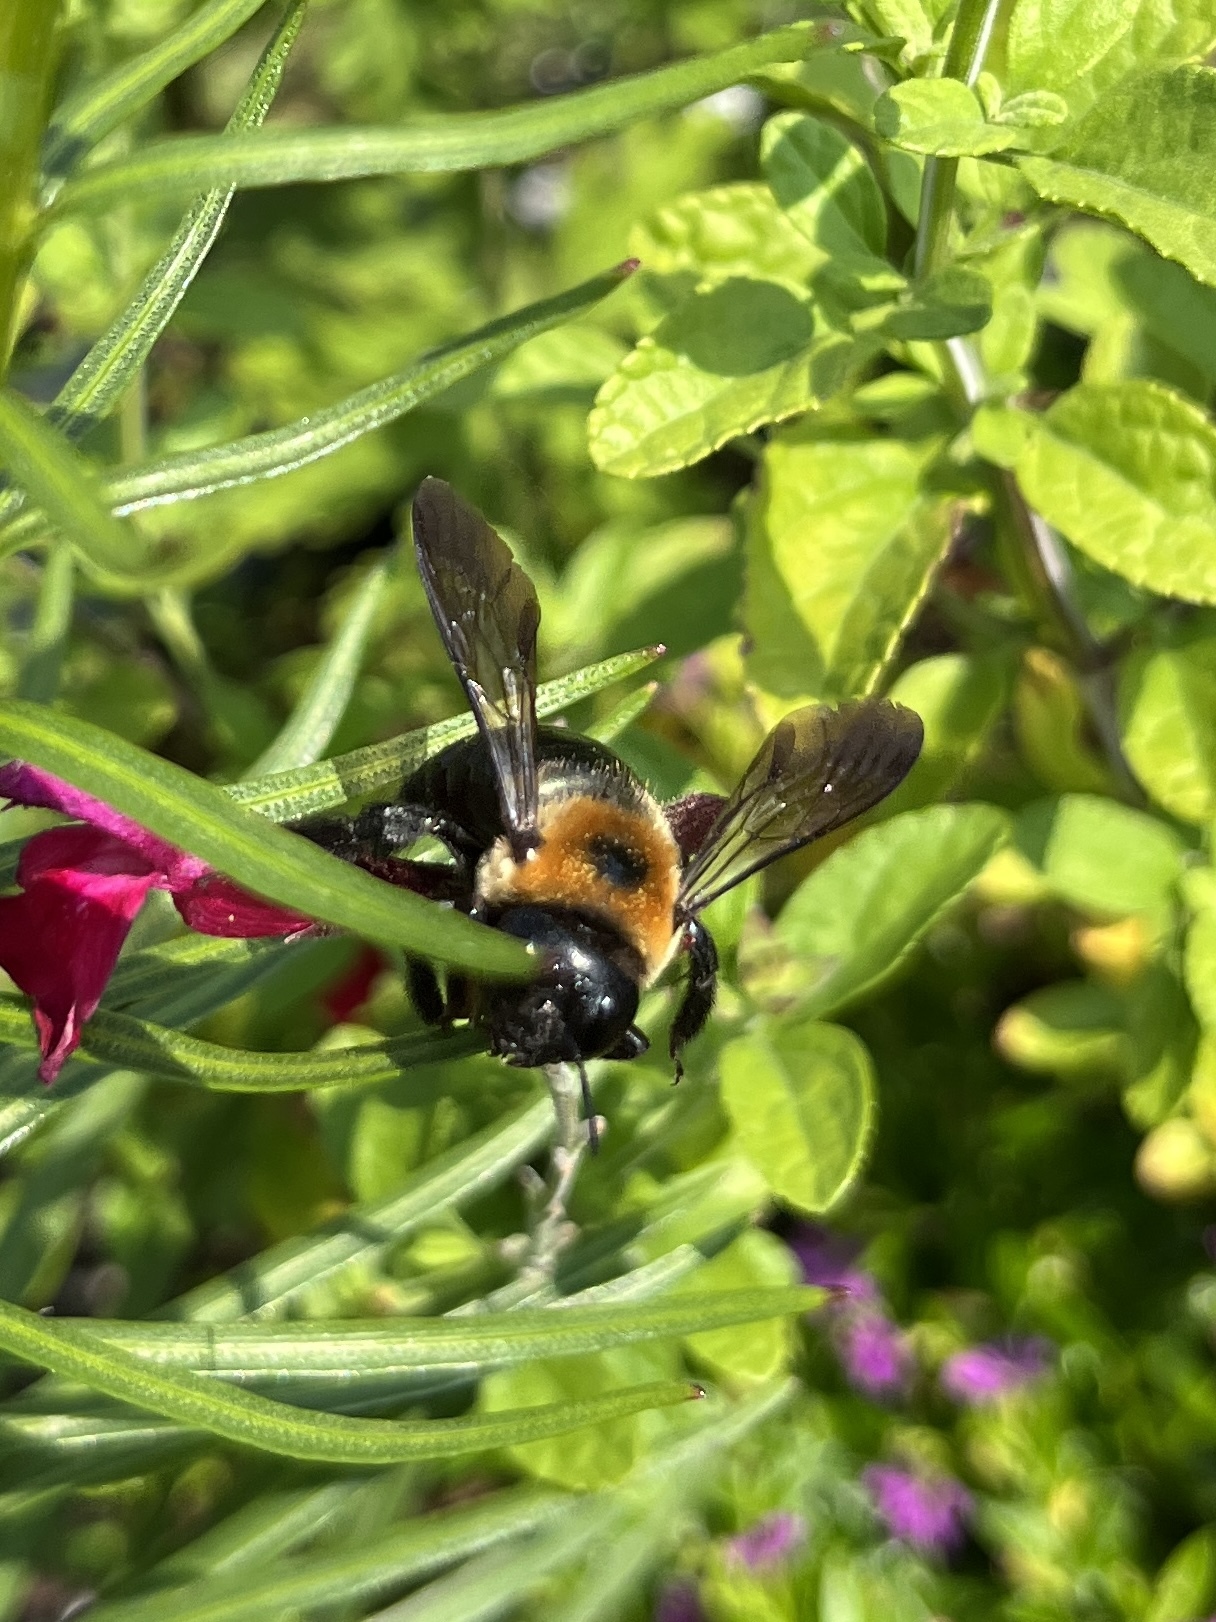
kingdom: Animalia
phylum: Arthropoda
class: Insecta
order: Hymenoptera
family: Apidae
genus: Xylocopa
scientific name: Xylocopa virginica
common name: Carpenter bee
